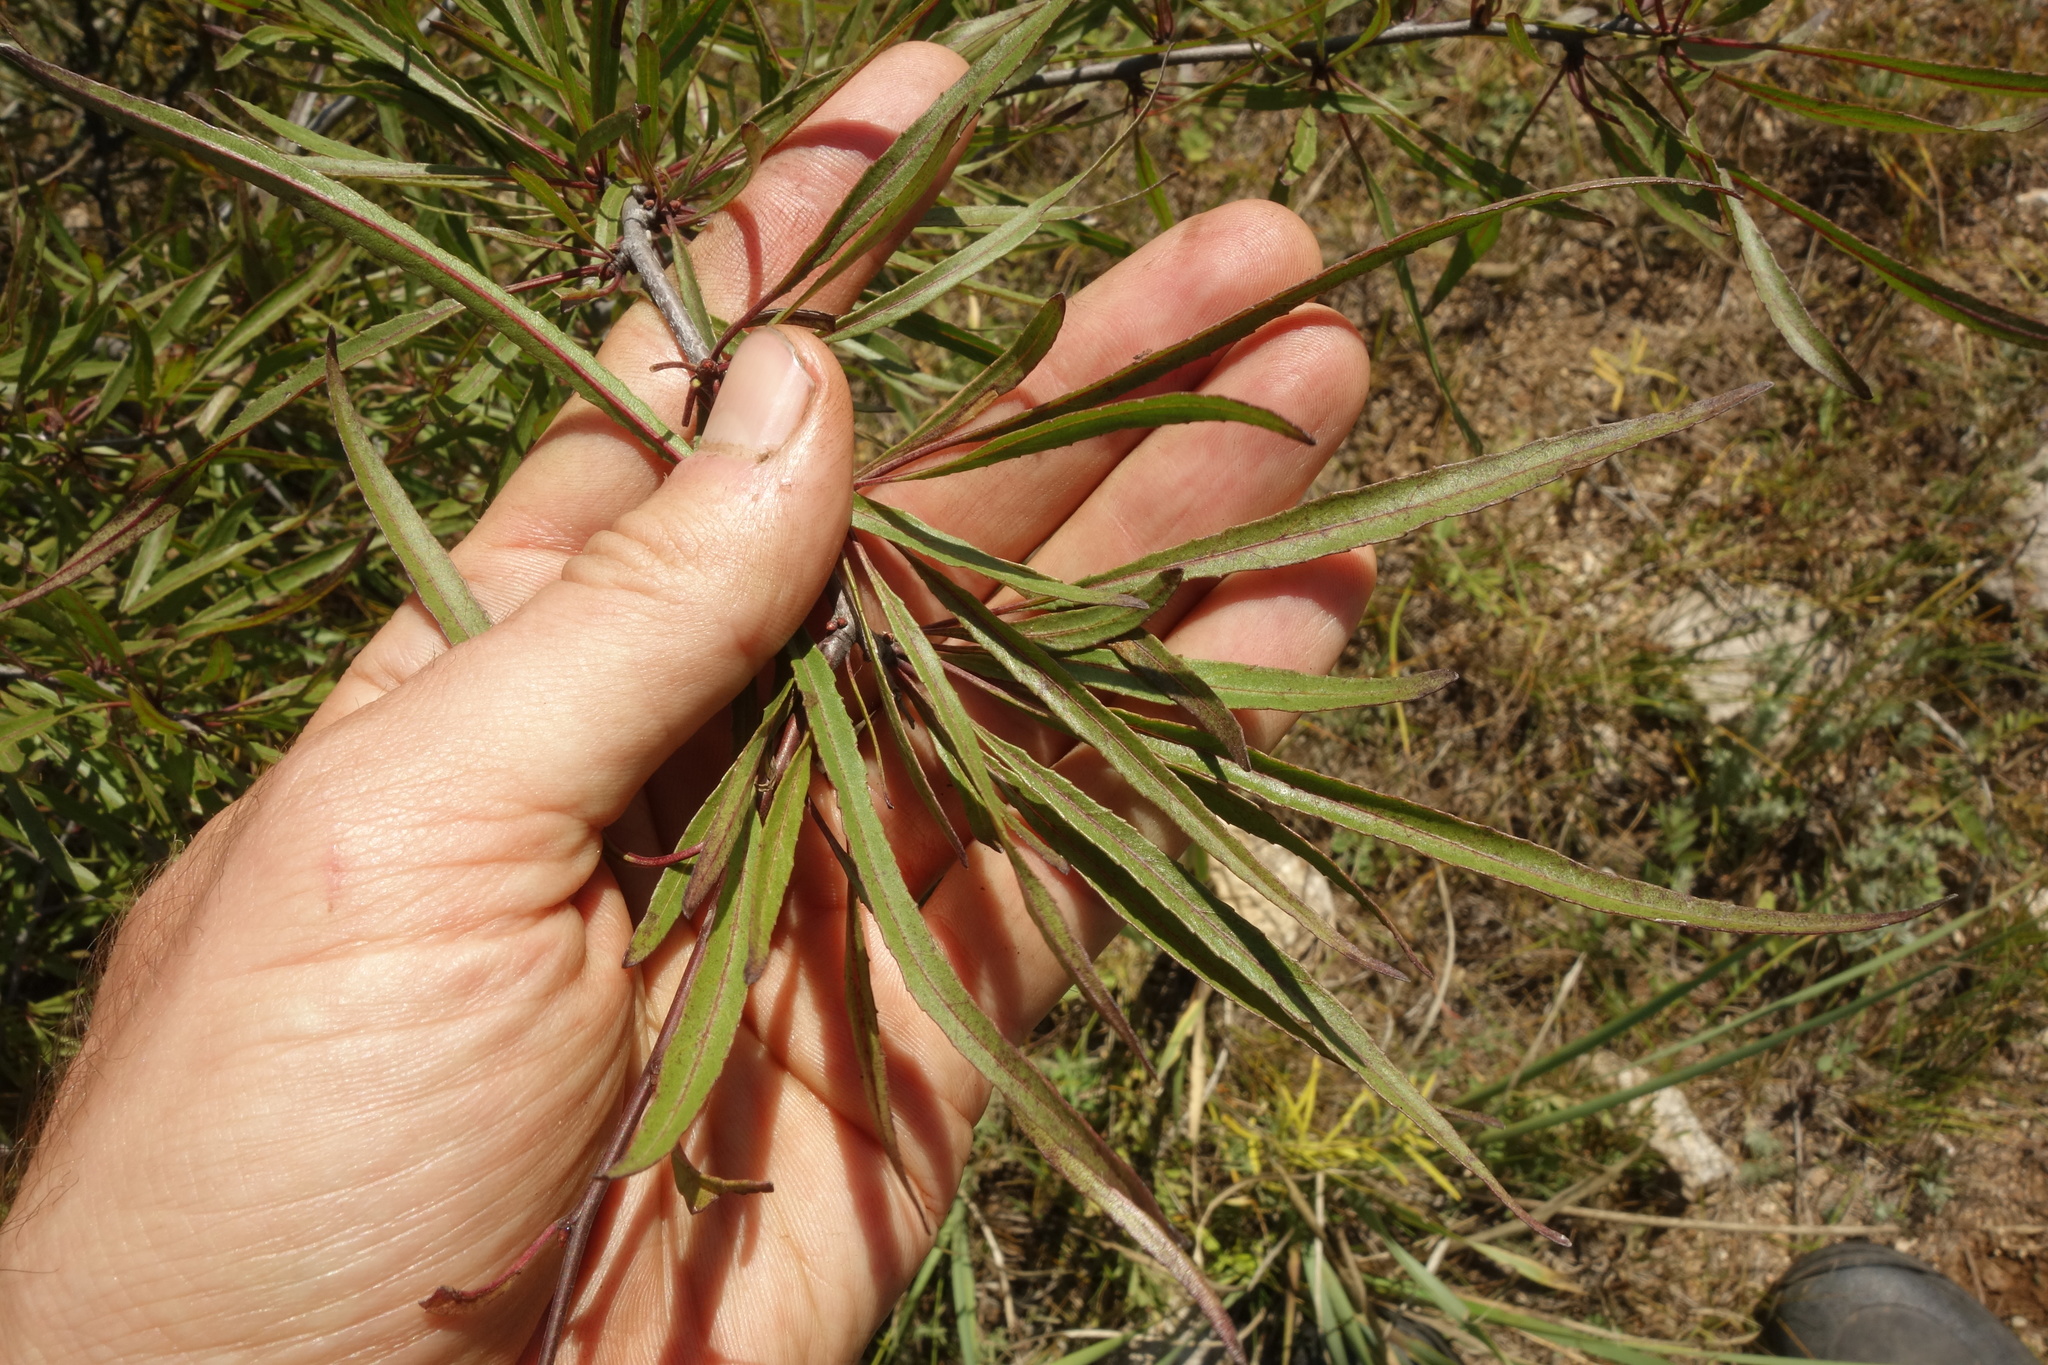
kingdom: Plantae
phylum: Tracheophyta
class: Magnoliopsida
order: Rosales
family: Rhamnaceae
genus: Rhamnus
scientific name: Rhamnus erythroxylum
